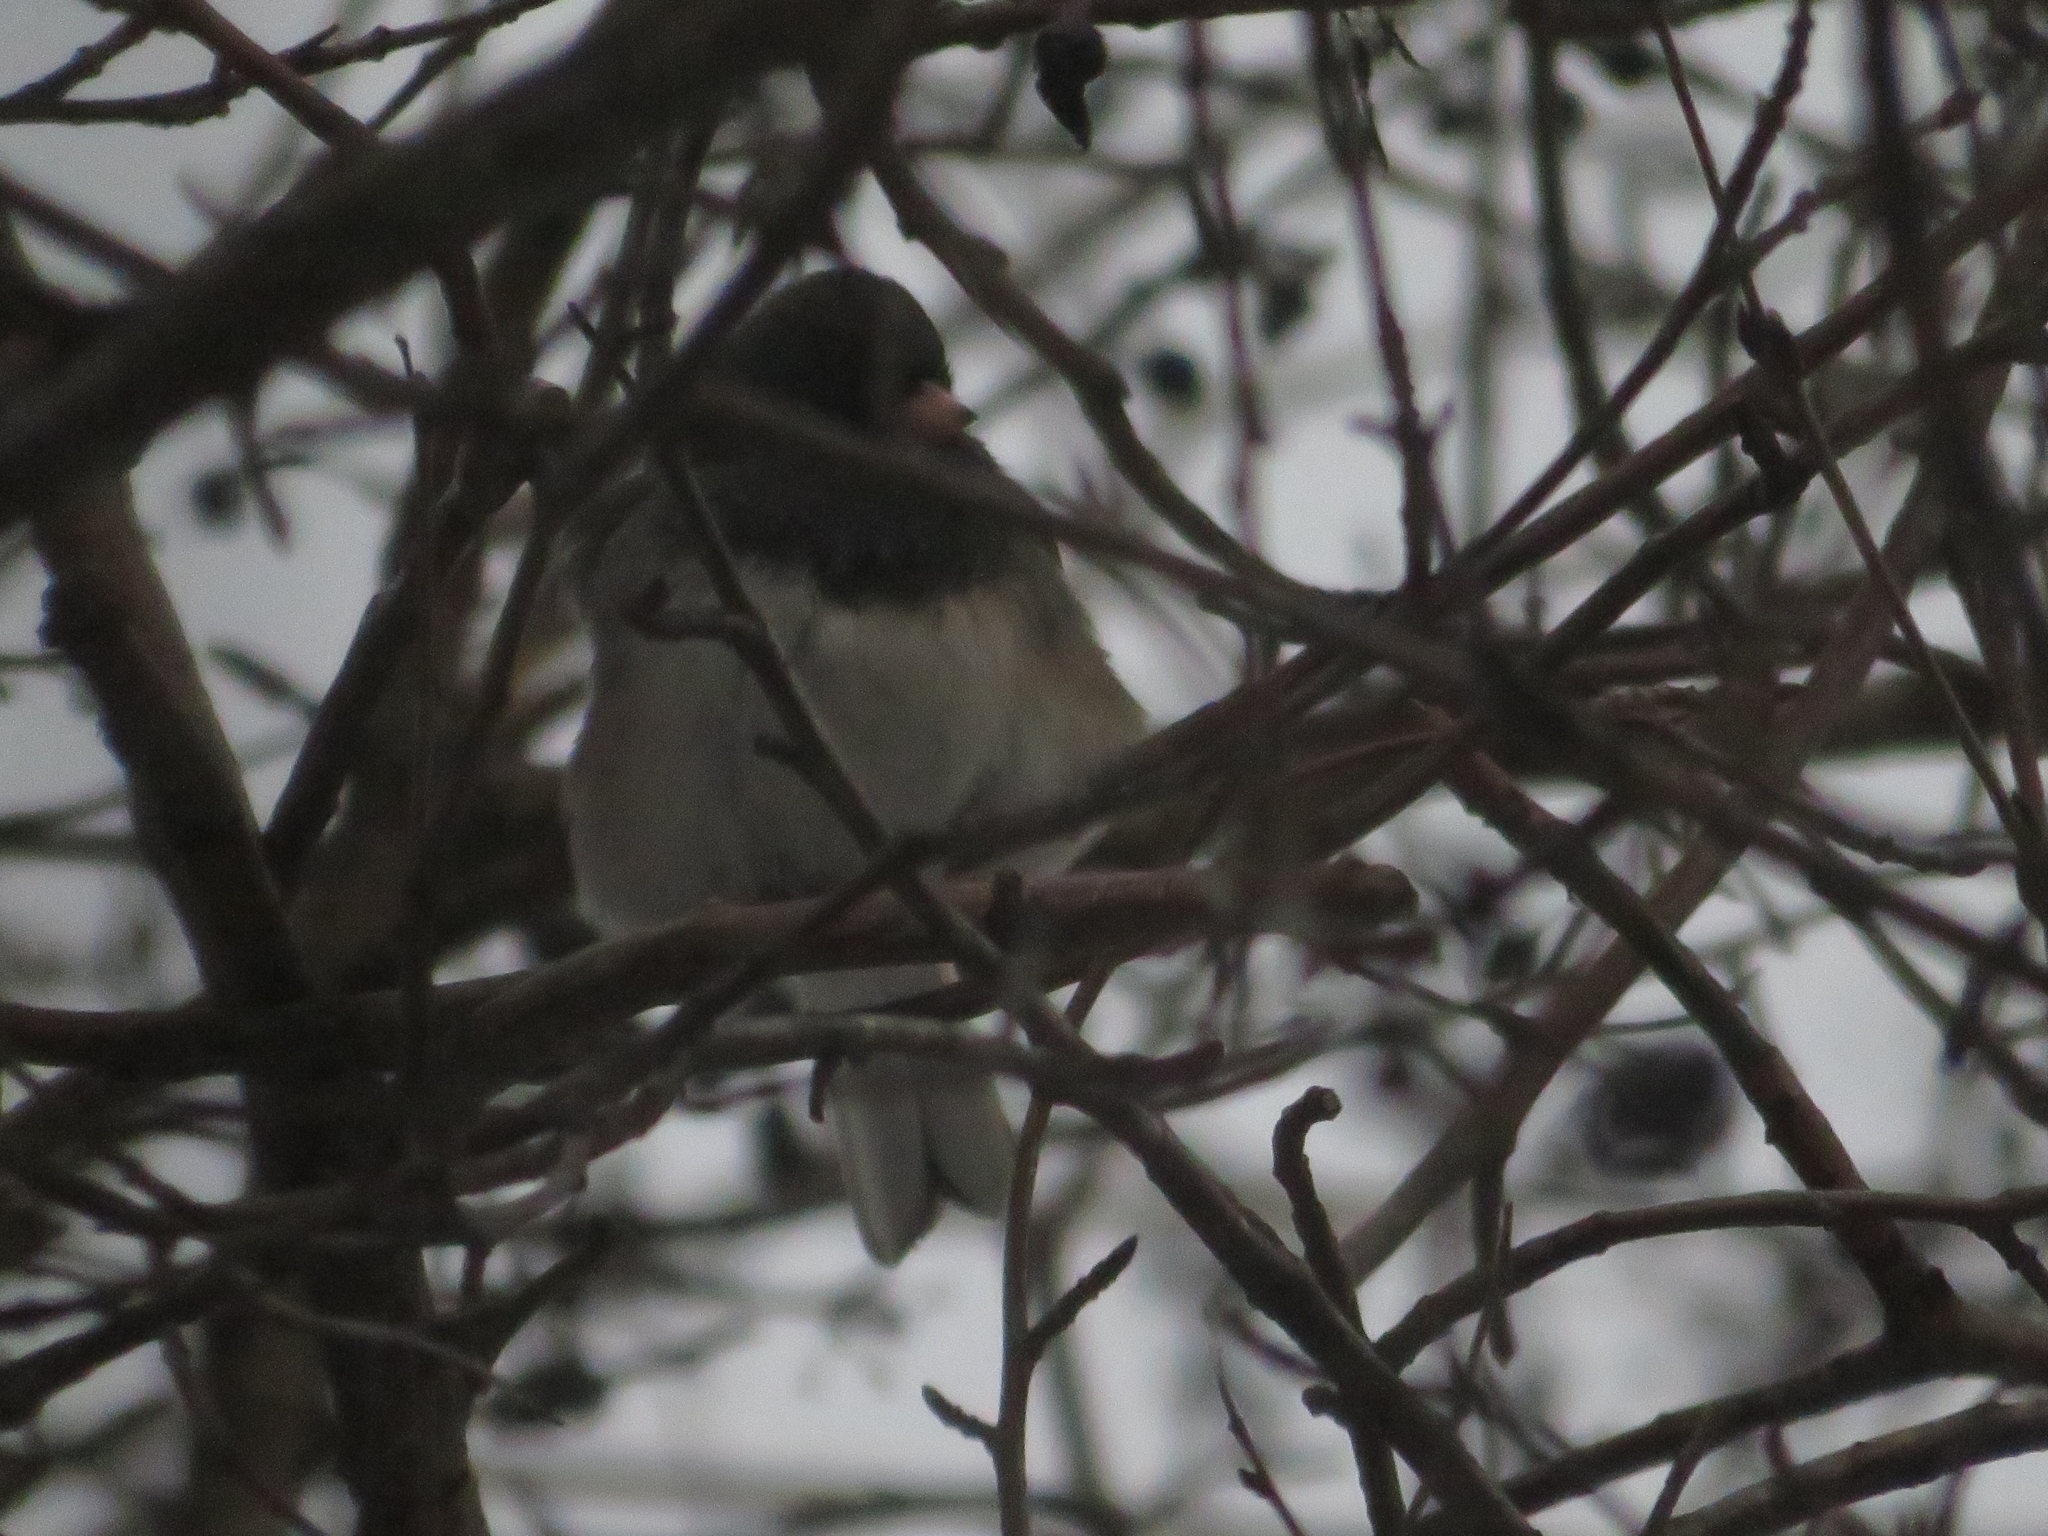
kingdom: Animalia
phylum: Chordata
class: Aves
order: Passeriformes
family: Passerellidae
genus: Junco
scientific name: Junco hyemalis
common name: Dark-eyed junco
